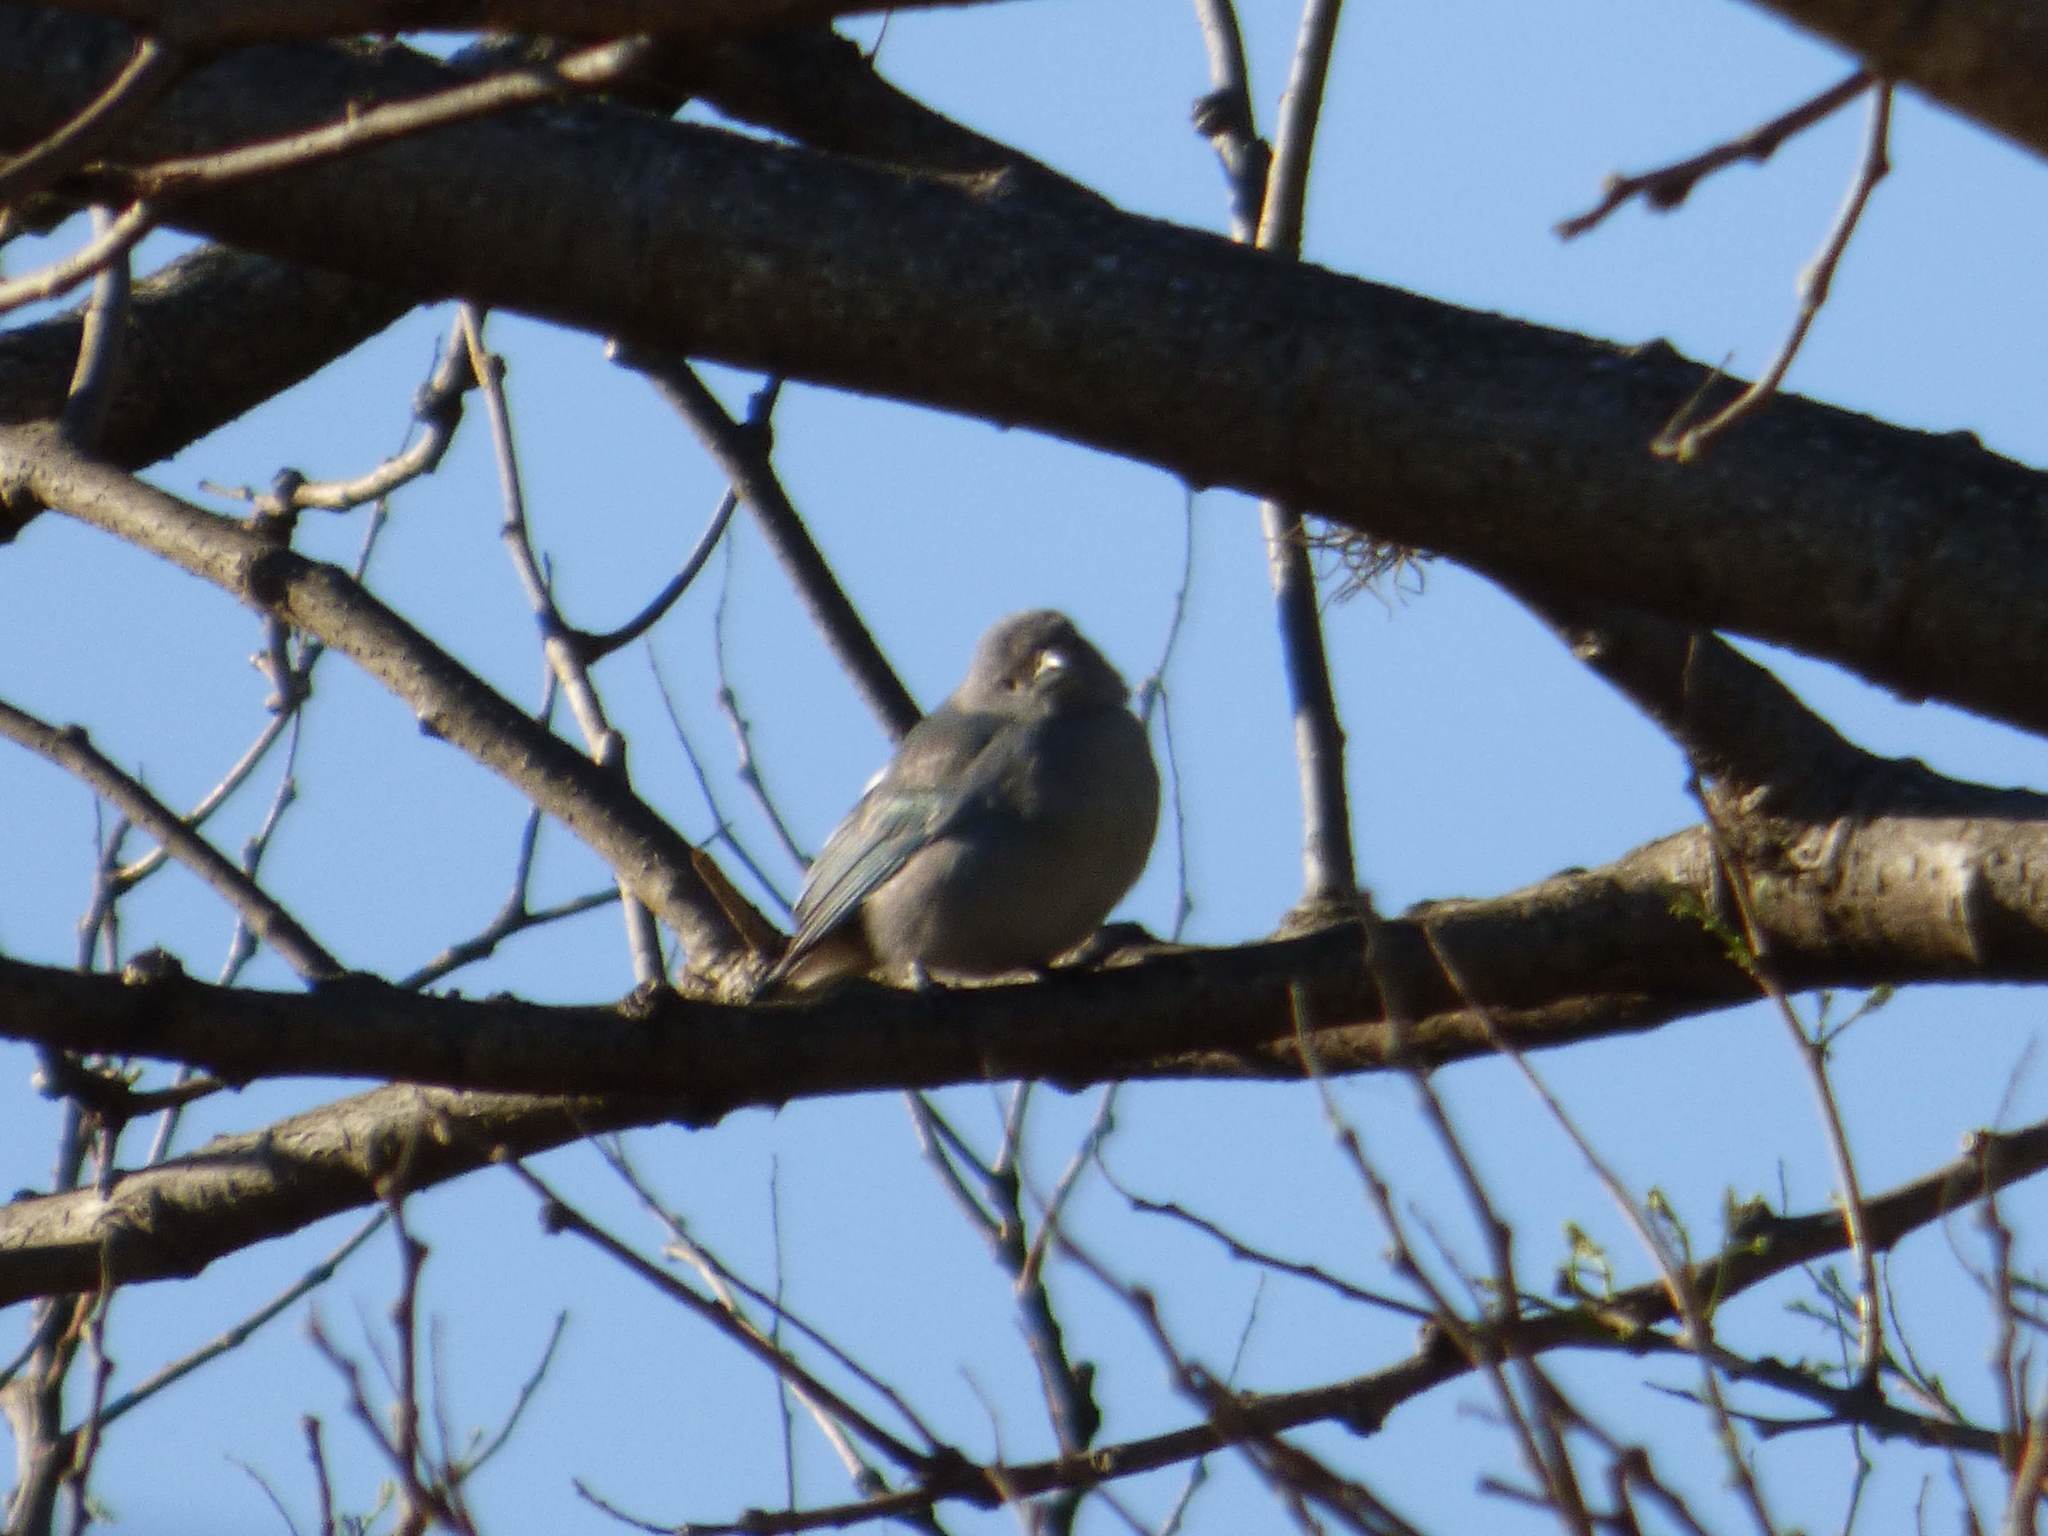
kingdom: Animalia
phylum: Chordata
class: Aves
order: Passeriformes
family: Thraupidae
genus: Thraupis
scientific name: Thraupis sayaca
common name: Sayaca tanager
